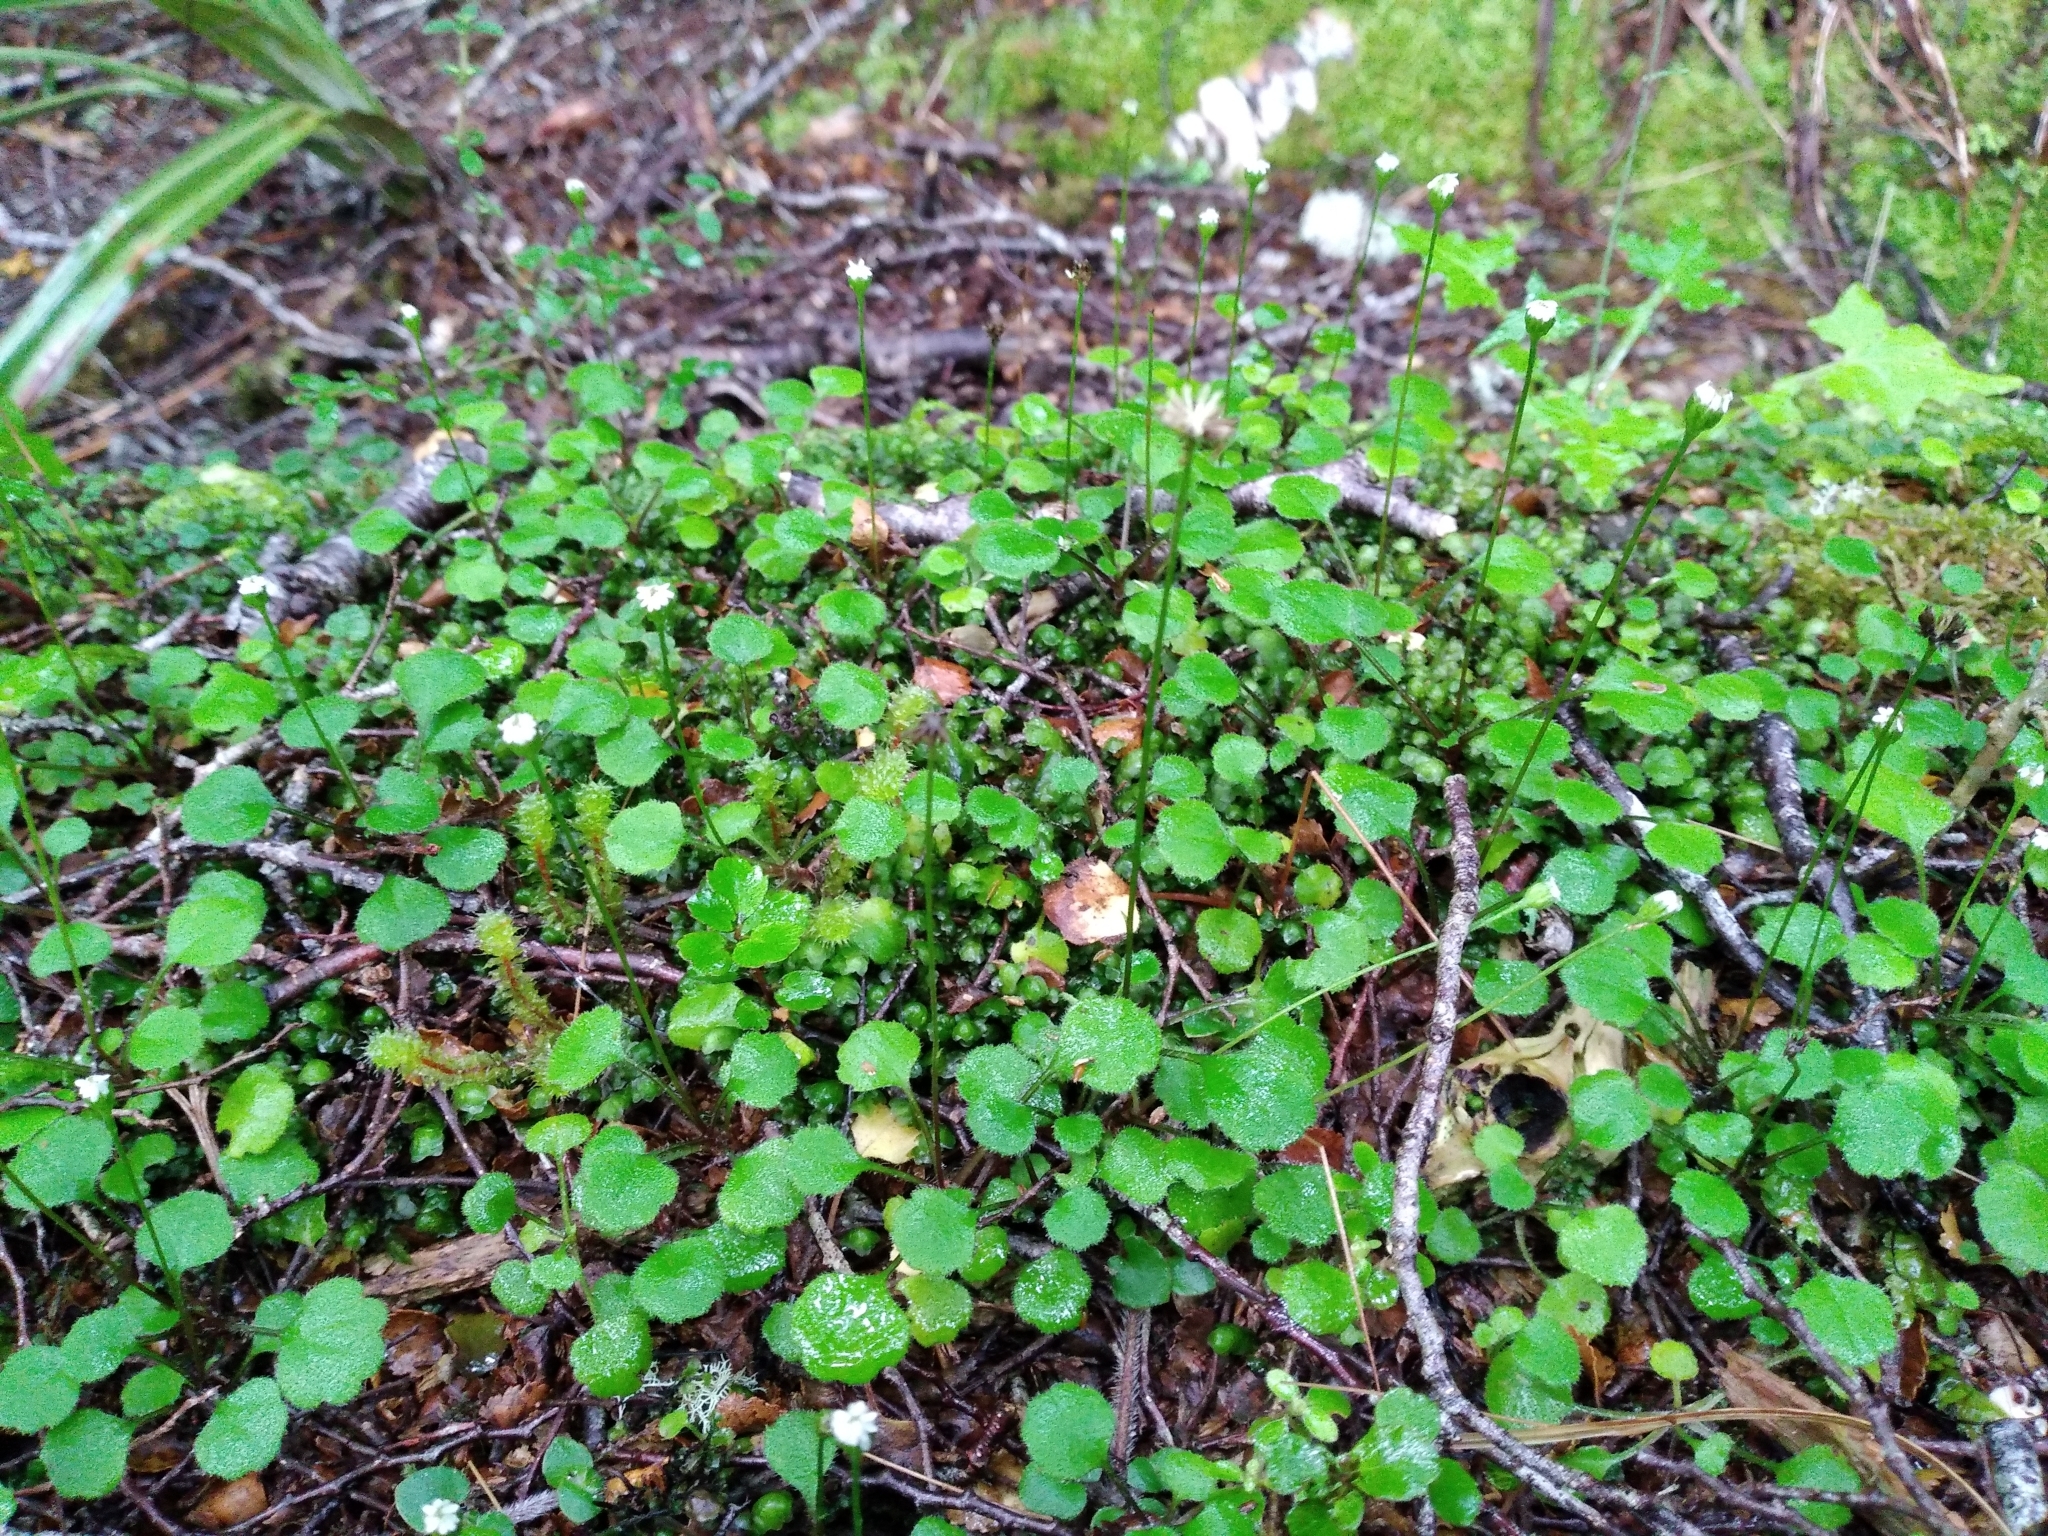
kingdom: Plantae
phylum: Tracheophyta
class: Magnoliopsida
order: Asterales
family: Asteraceae
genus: Lagenophora
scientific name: Lagenophora strangulata
